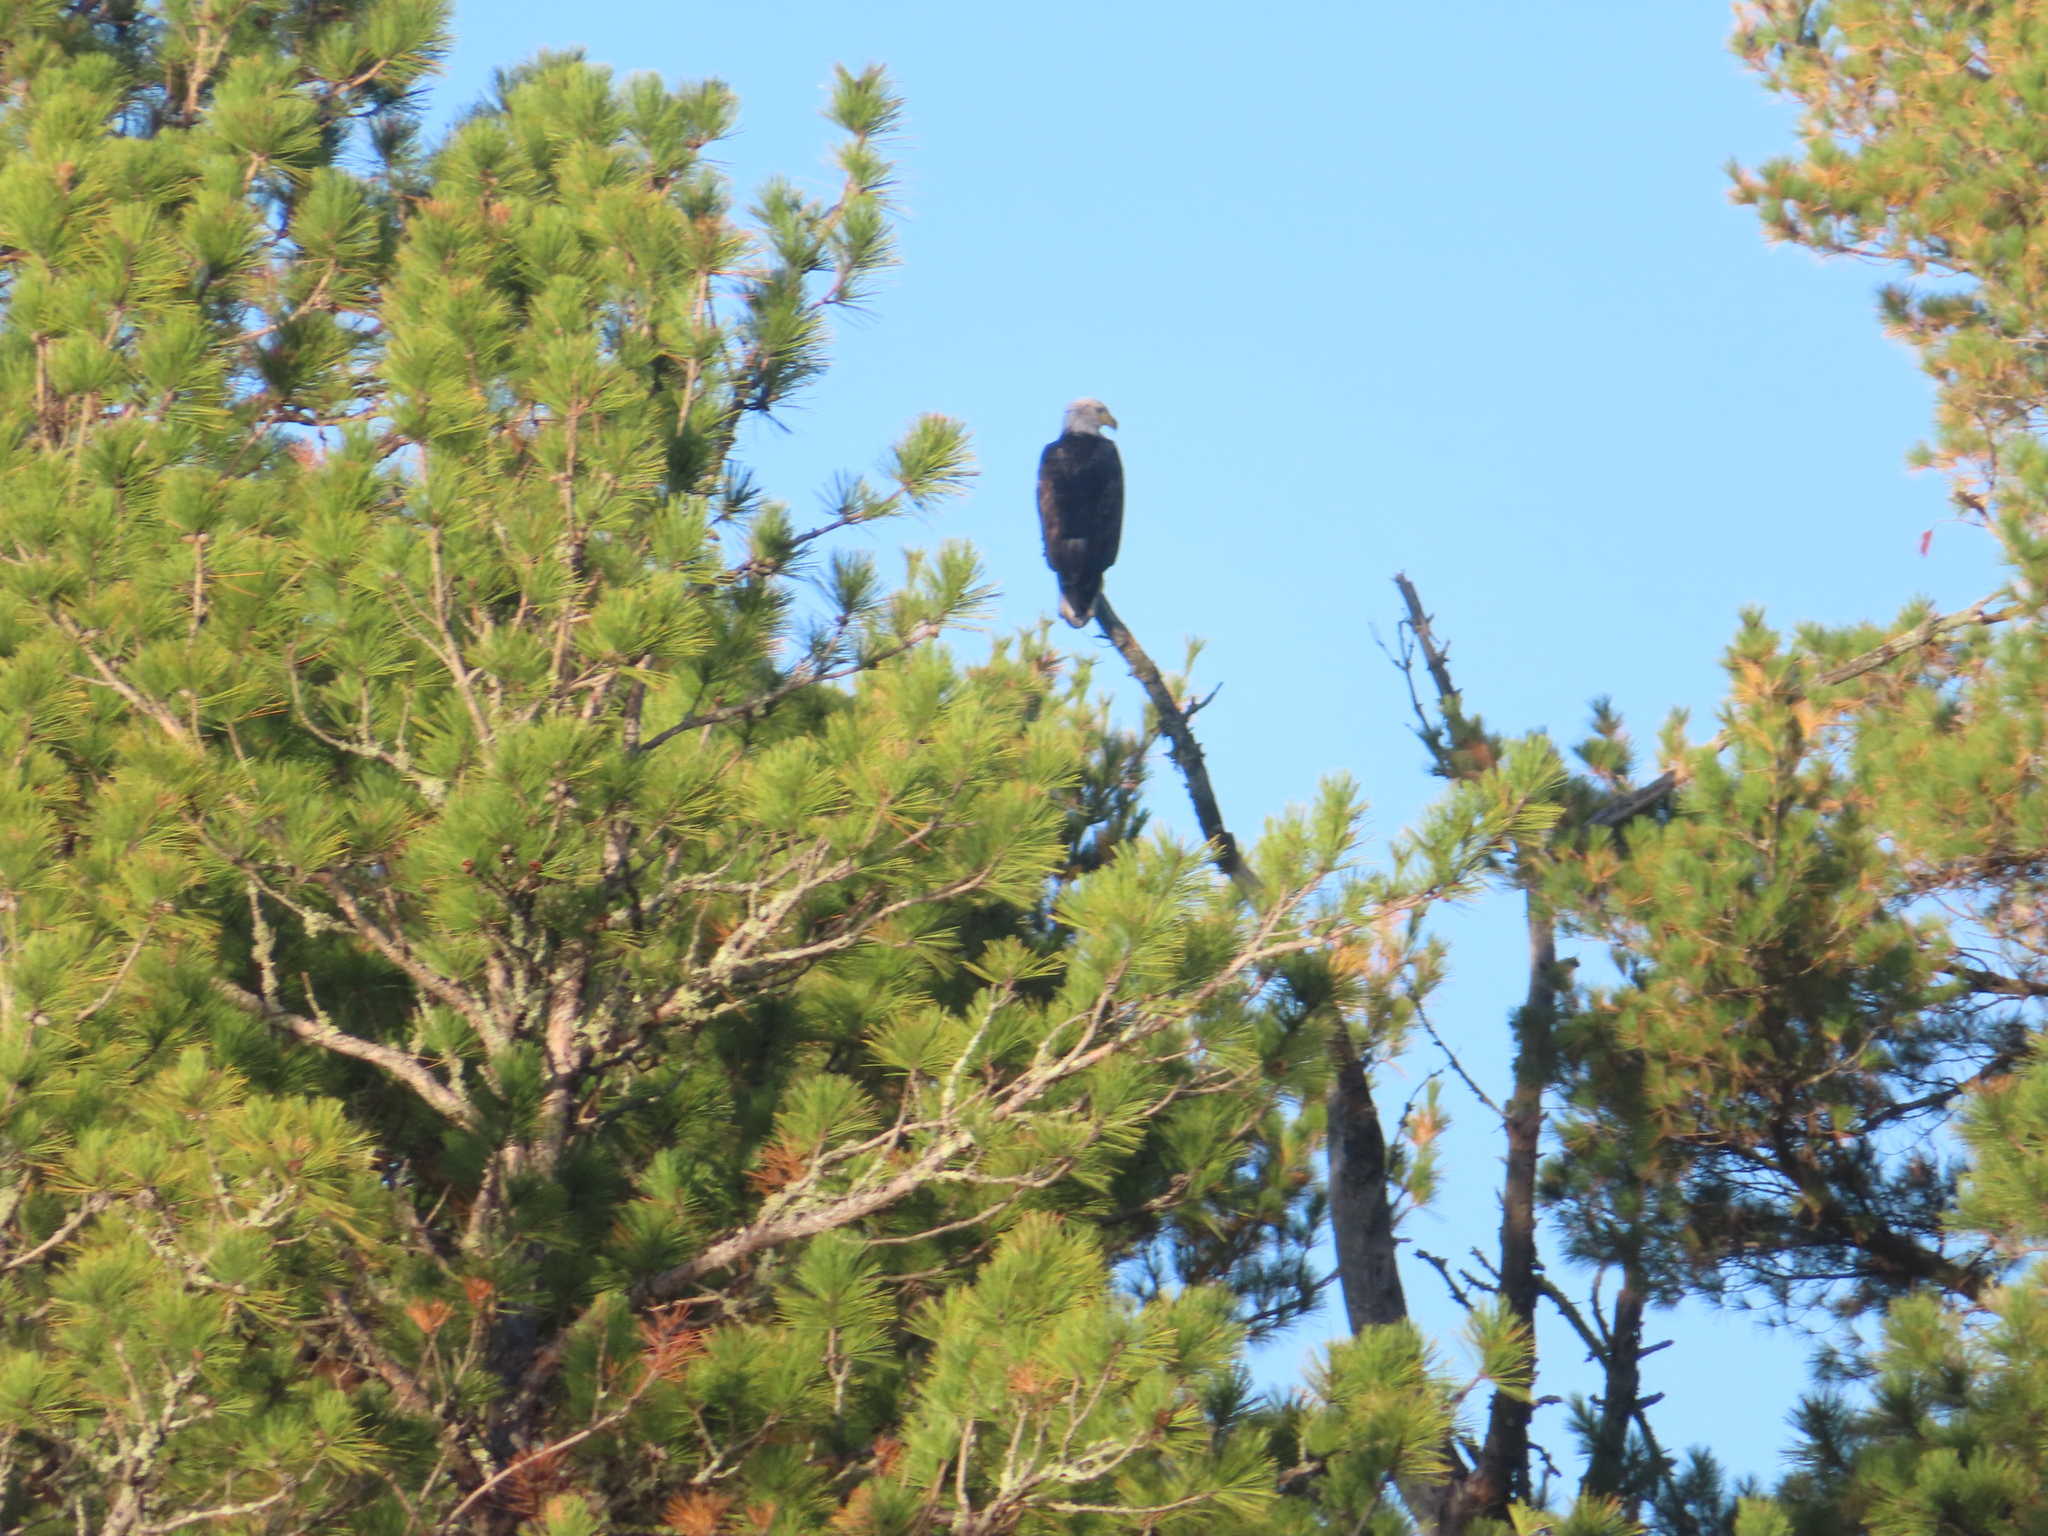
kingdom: Animalia
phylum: Chordata
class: Aves
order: Accipitriformes
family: Accipitridae
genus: Haliaeetus
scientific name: Haliaeetus leucocephalus
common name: Bald eagle
